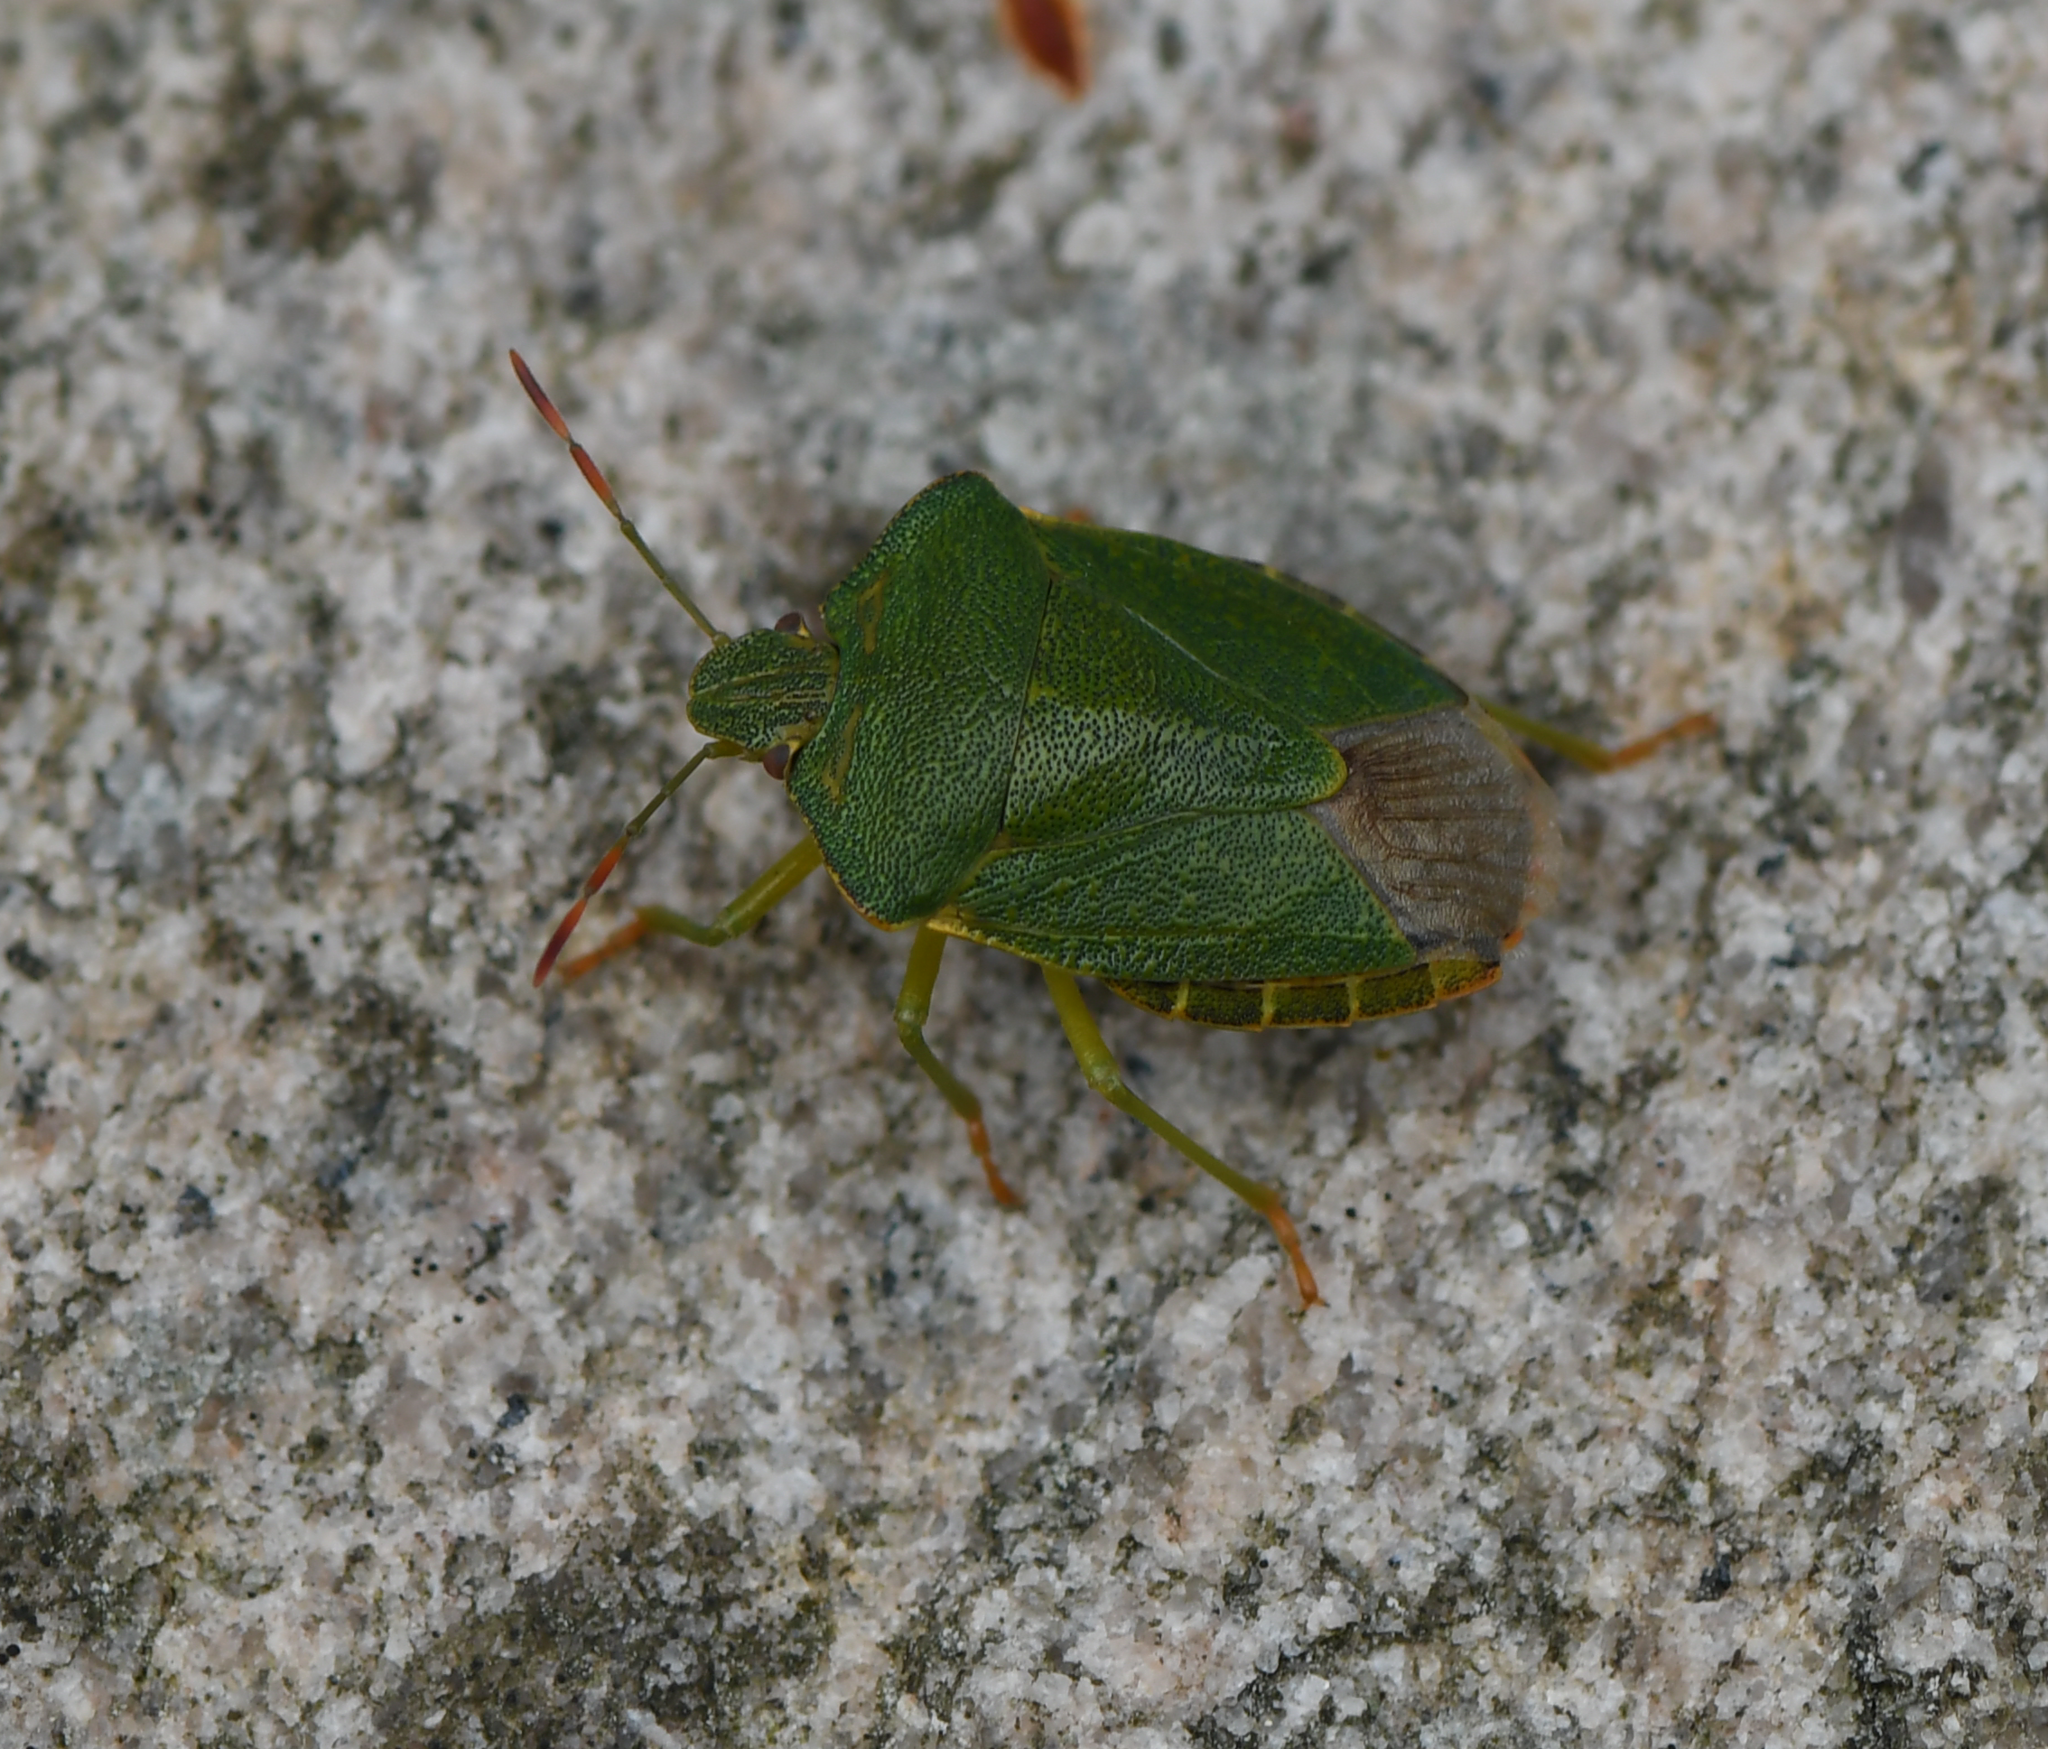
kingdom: Animalia
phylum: Arthropoda
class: Insecta
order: Hemiptera
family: Pentatomidae
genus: Palomena
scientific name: Palomena prasina
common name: Green shieldbug
